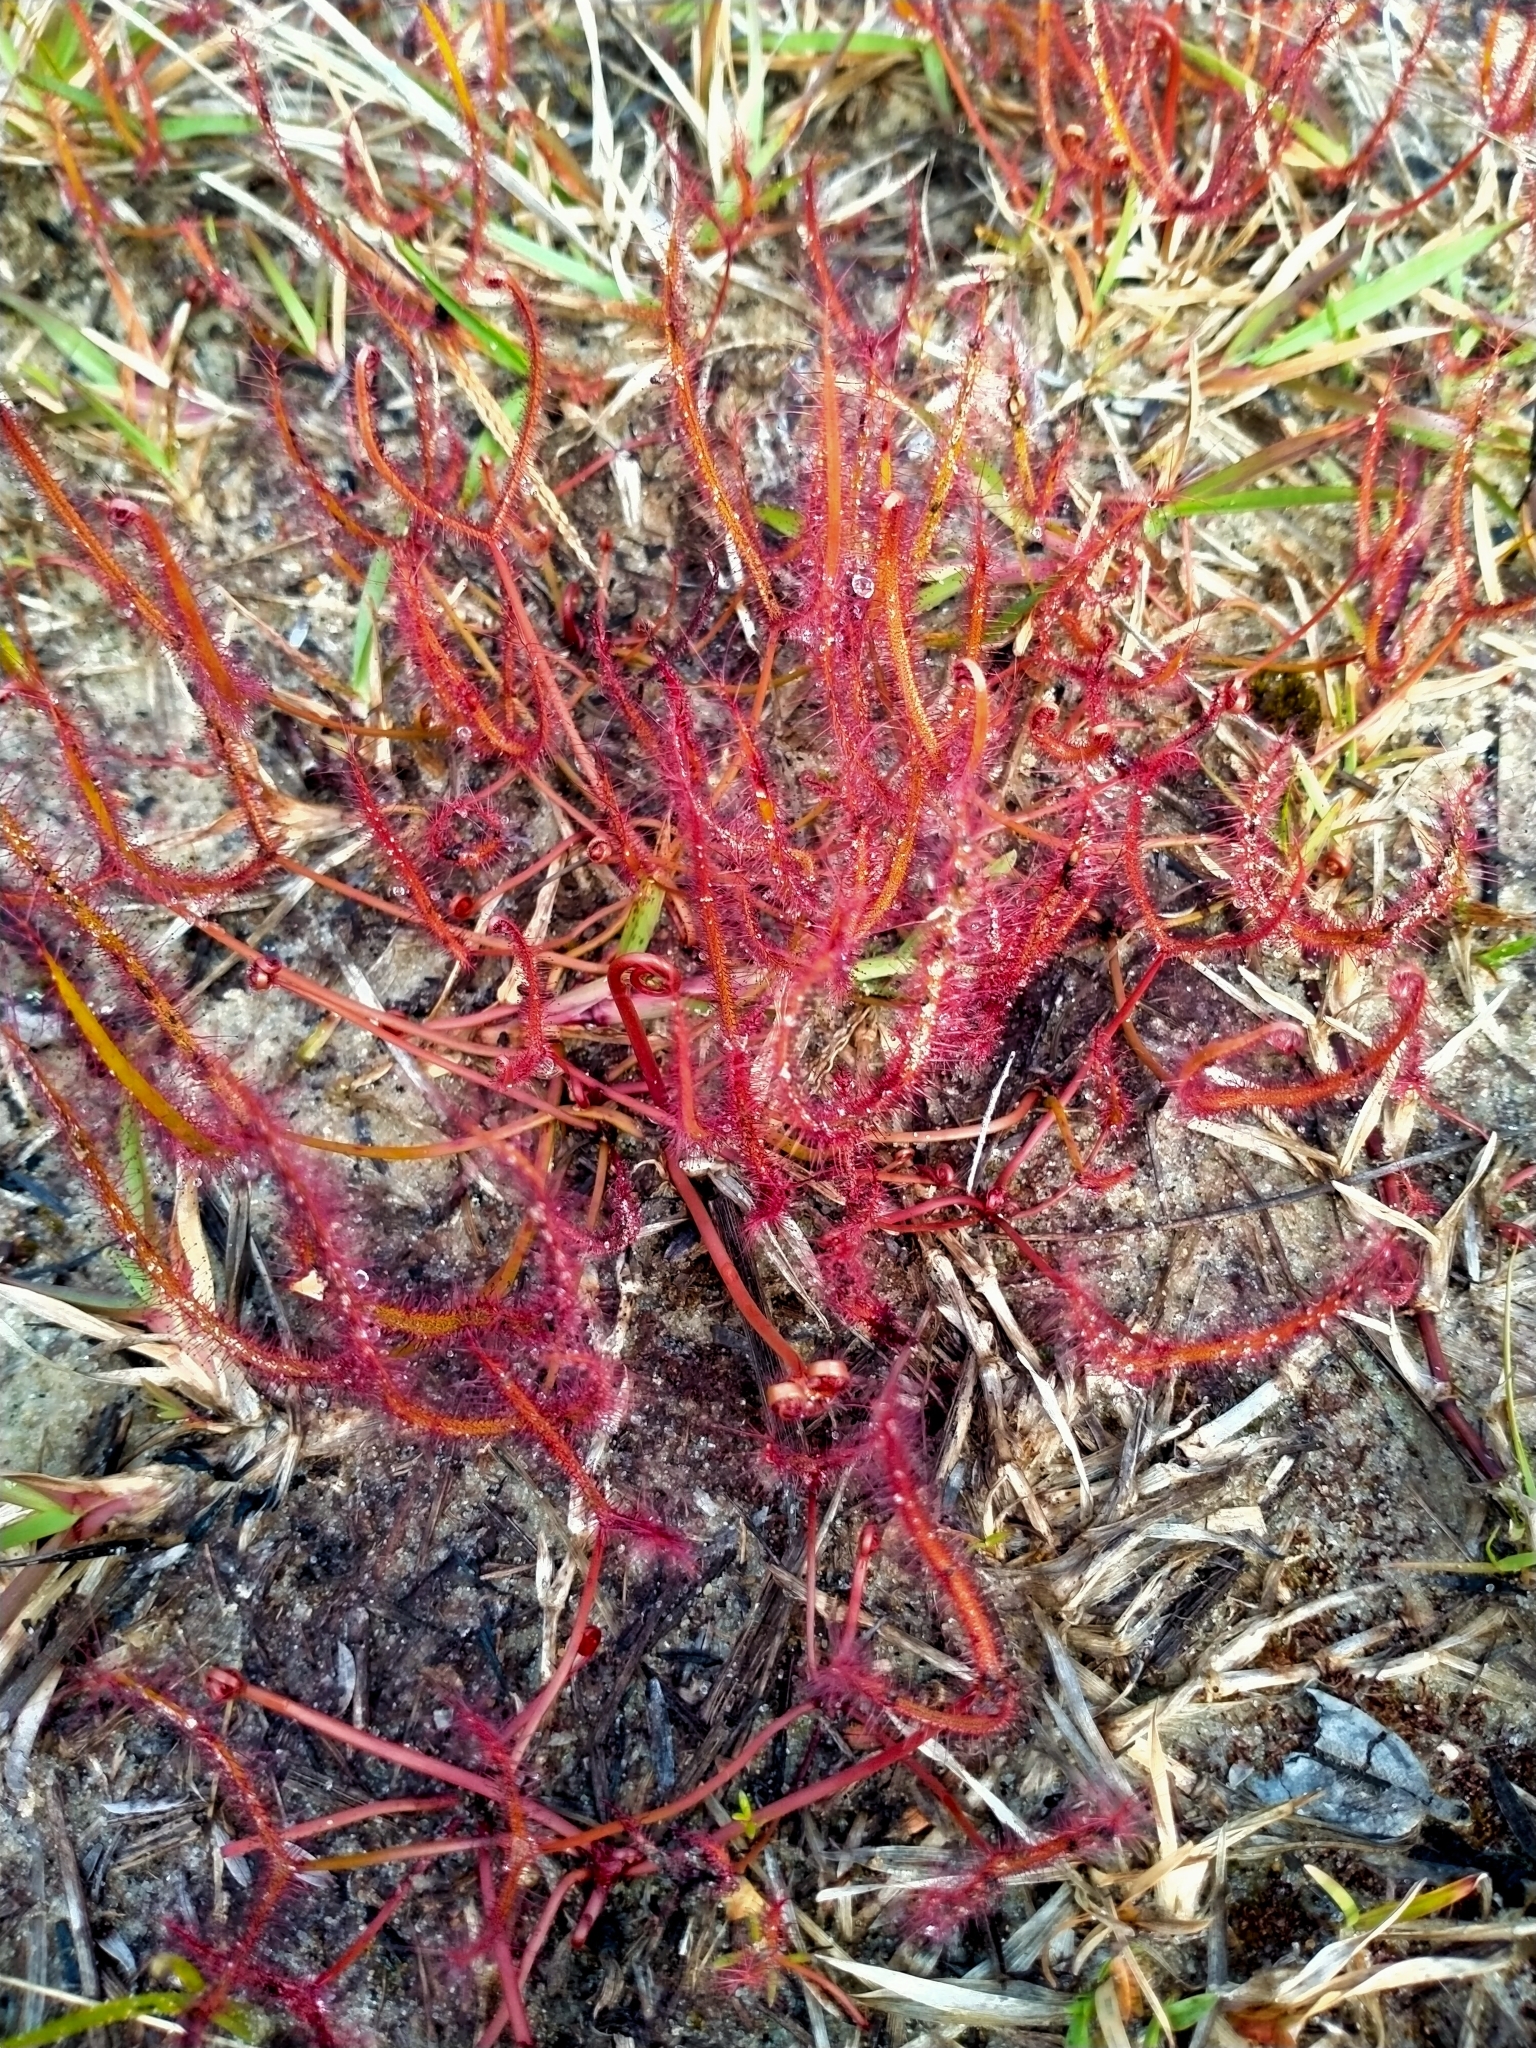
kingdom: Plantae
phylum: Tracheophyta
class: Magnoliopsida
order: Caryophyllales
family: Droseraceae
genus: Drosera
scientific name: Drosera binata
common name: Forked sundew
